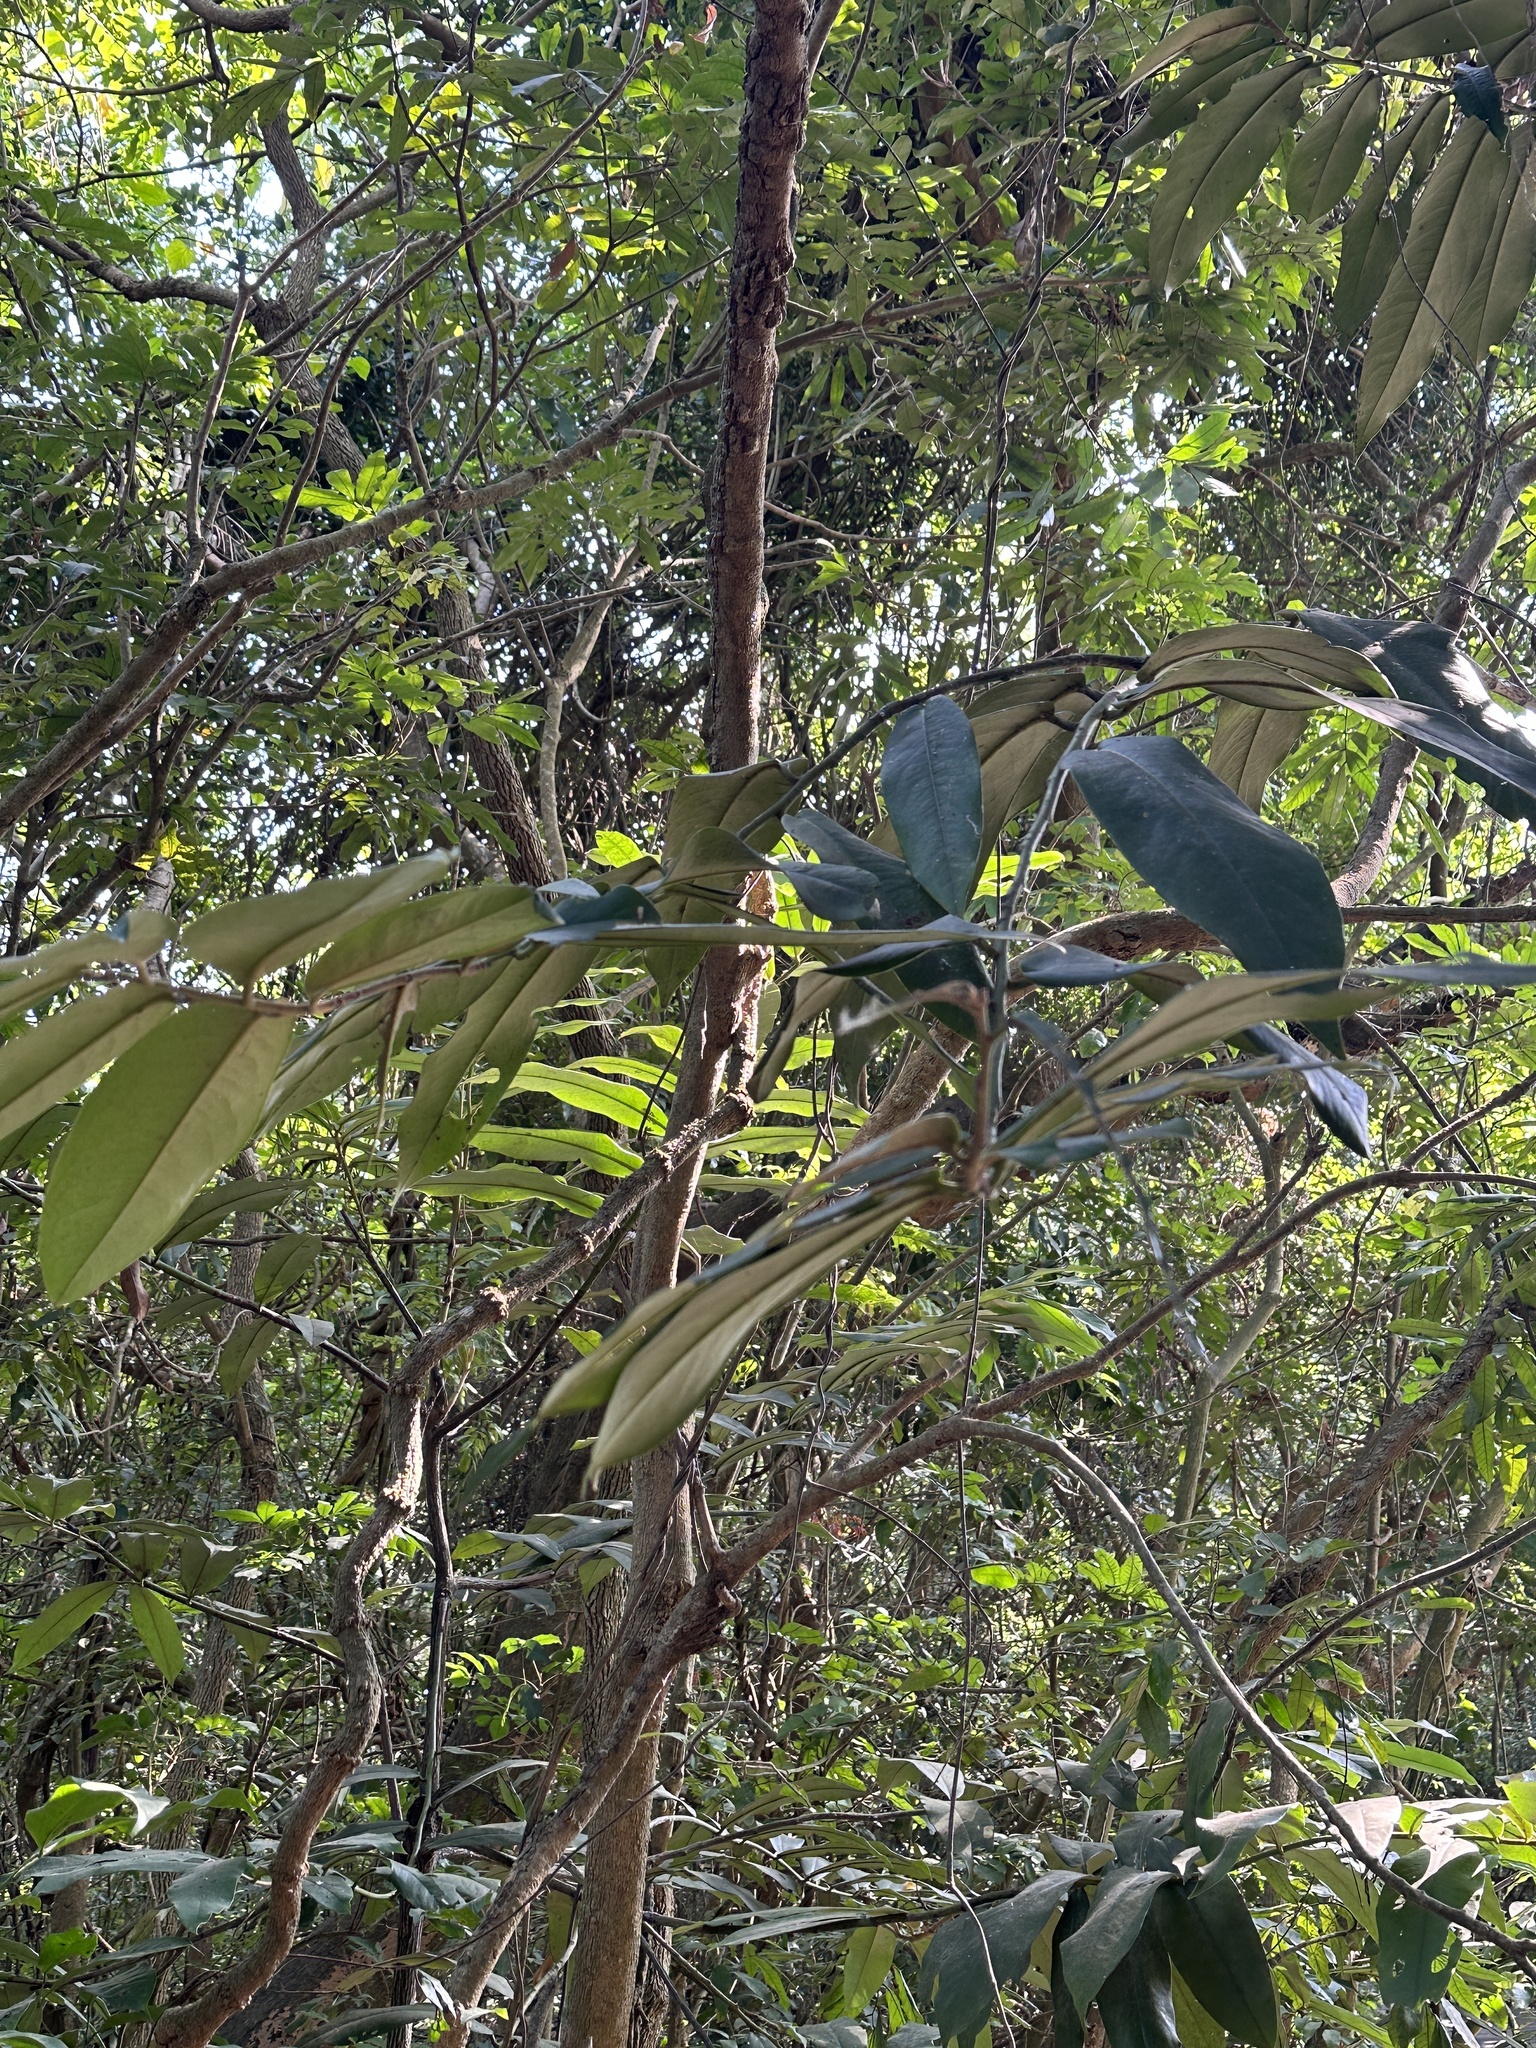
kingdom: Plantae
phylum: Tracheophyta
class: Magnoliopsida
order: Ericales
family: Ebenaceae
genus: Diospyros
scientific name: Diospyros blancoi
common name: Mabola-tree
